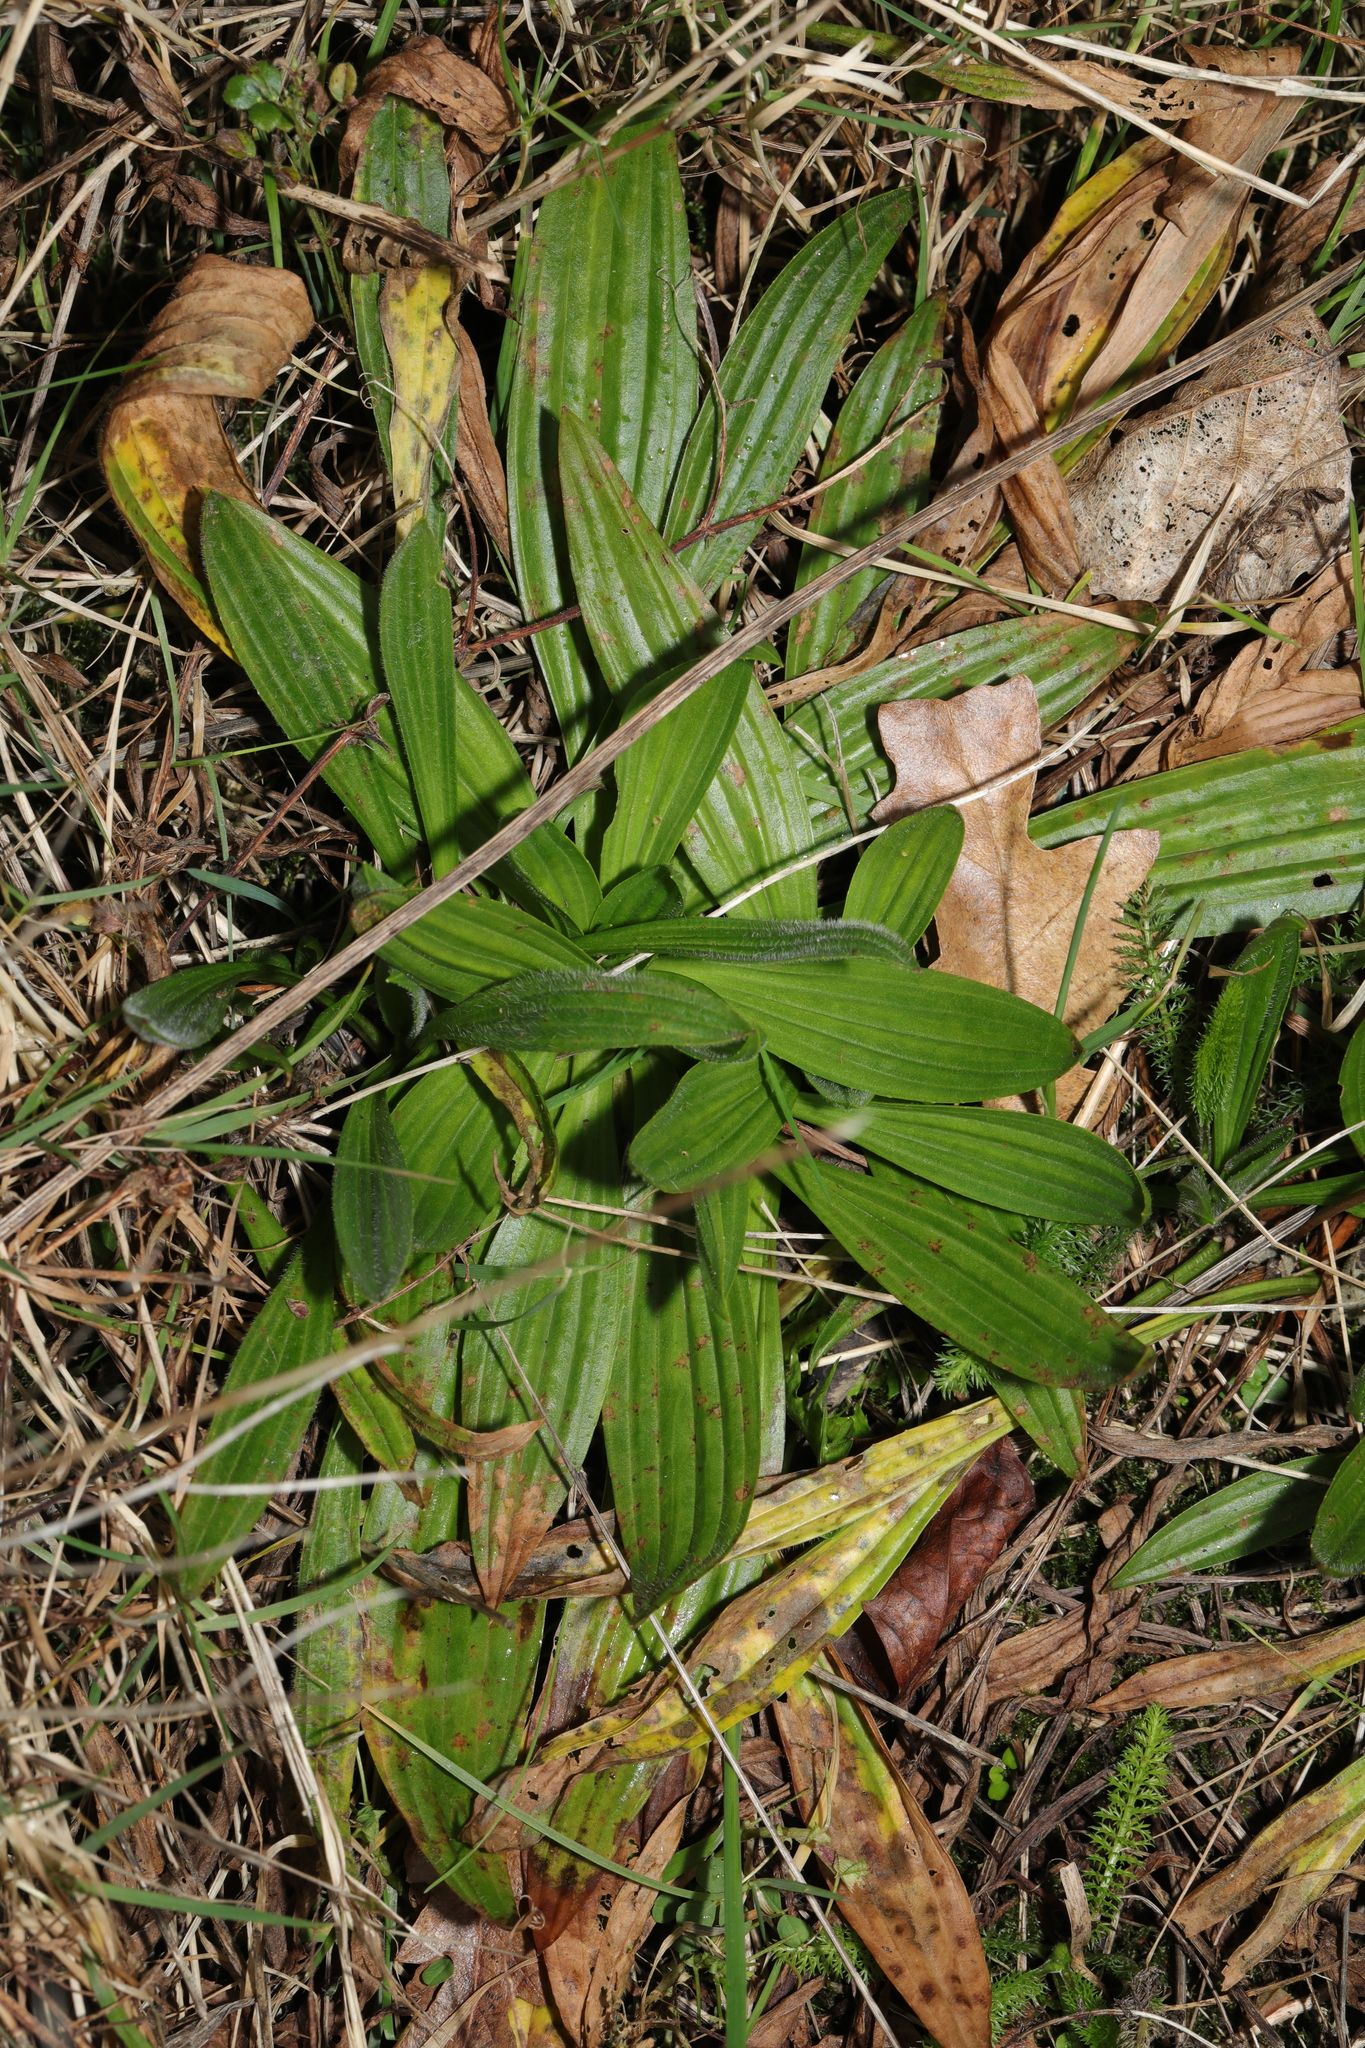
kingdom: Plantae
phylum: Tracheophyta
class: Magnoliopsida
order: Lamiales
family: Plantaginaceae
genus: Plantago
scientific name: Plantago lanceolata
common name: Ribwort plantain
